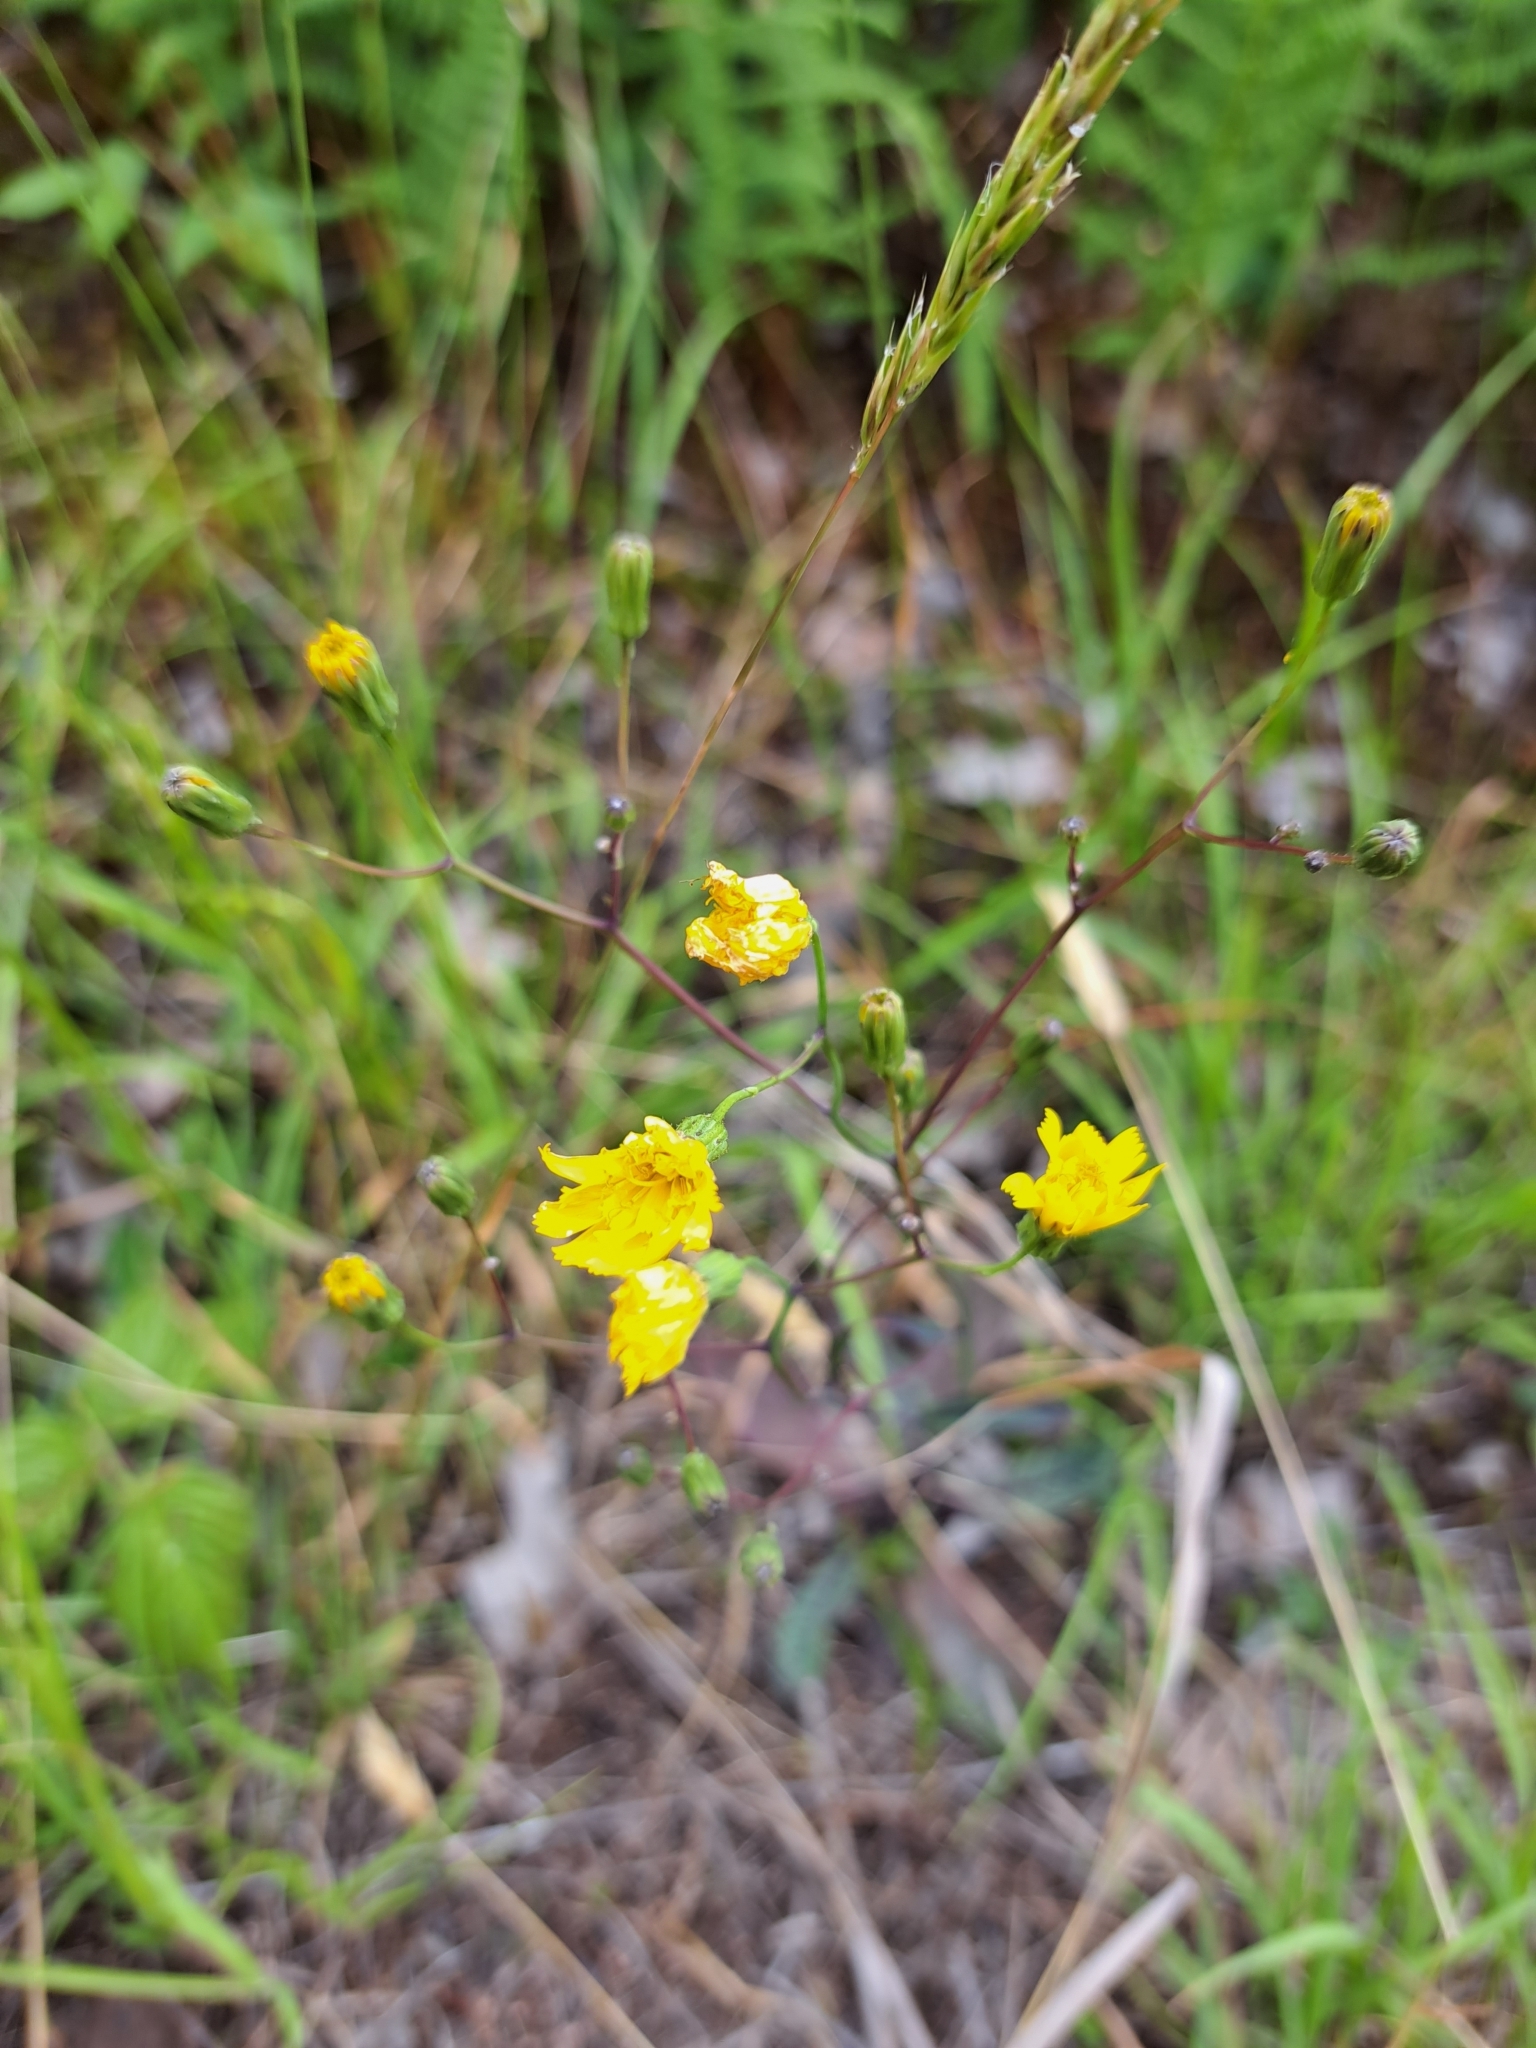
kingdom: Plantae
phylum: Tracheophyta
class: Magnoliopsida
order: Asterales
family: Asteraceae
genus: Hieracium
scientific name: Hieracium venosum
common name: Rattlesnake hawkweed
